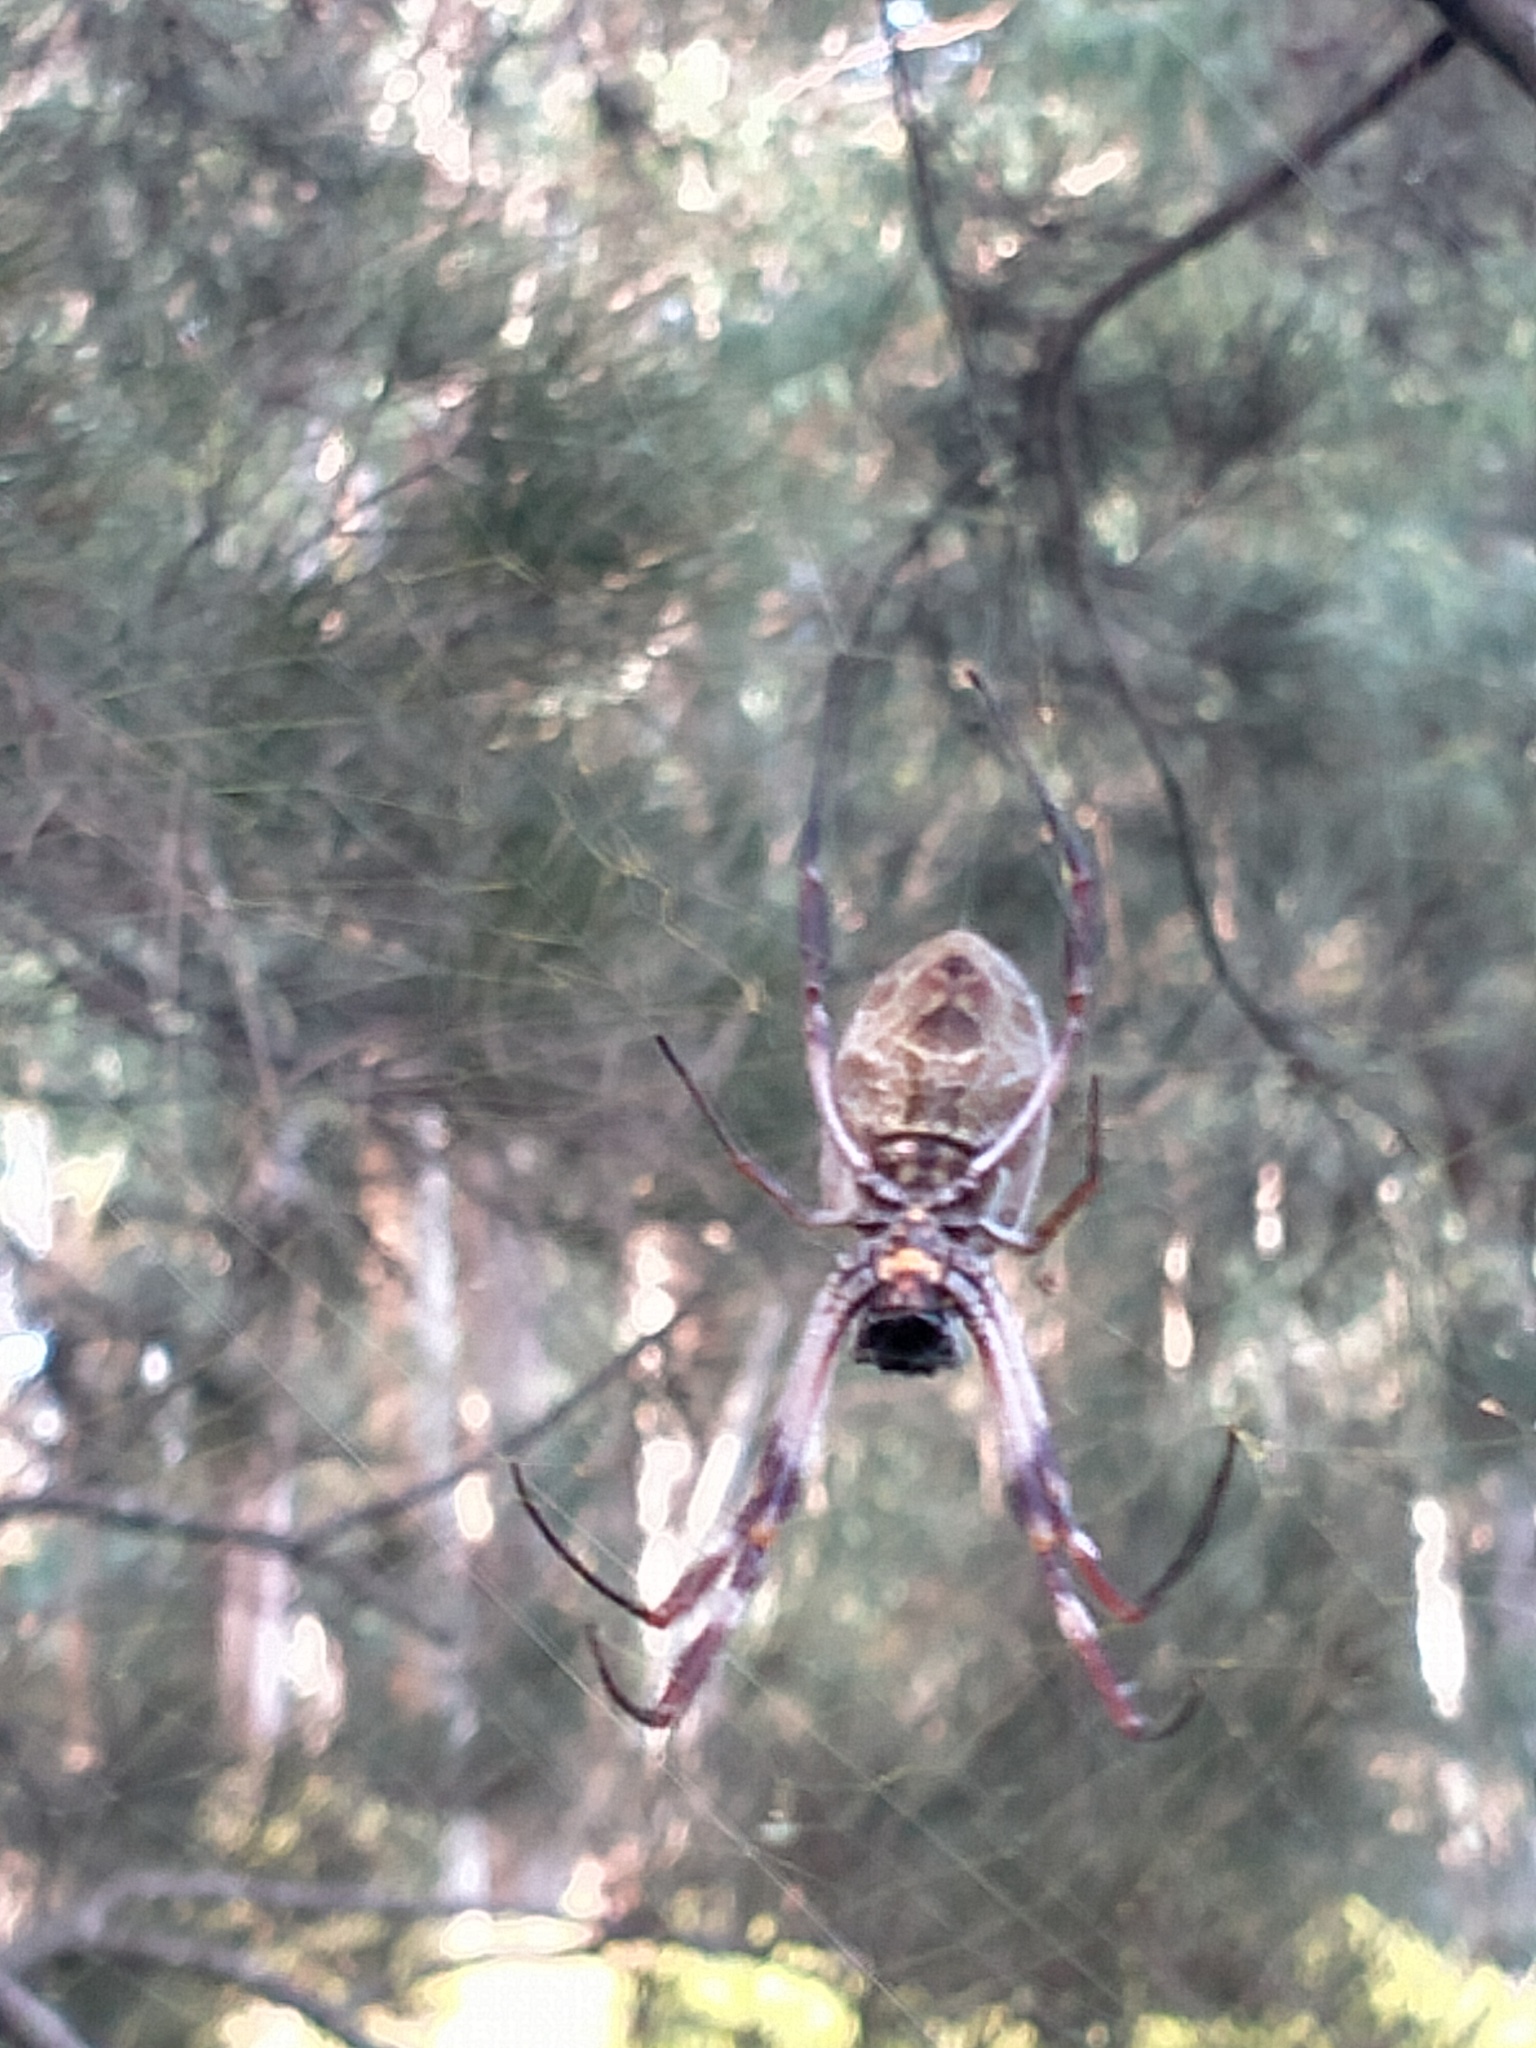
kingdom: Animalia
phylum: Arthropoda
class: Arachnida
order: Araneae
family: Araneidae
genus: Trichonephila
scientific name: Trichonephila edulis
